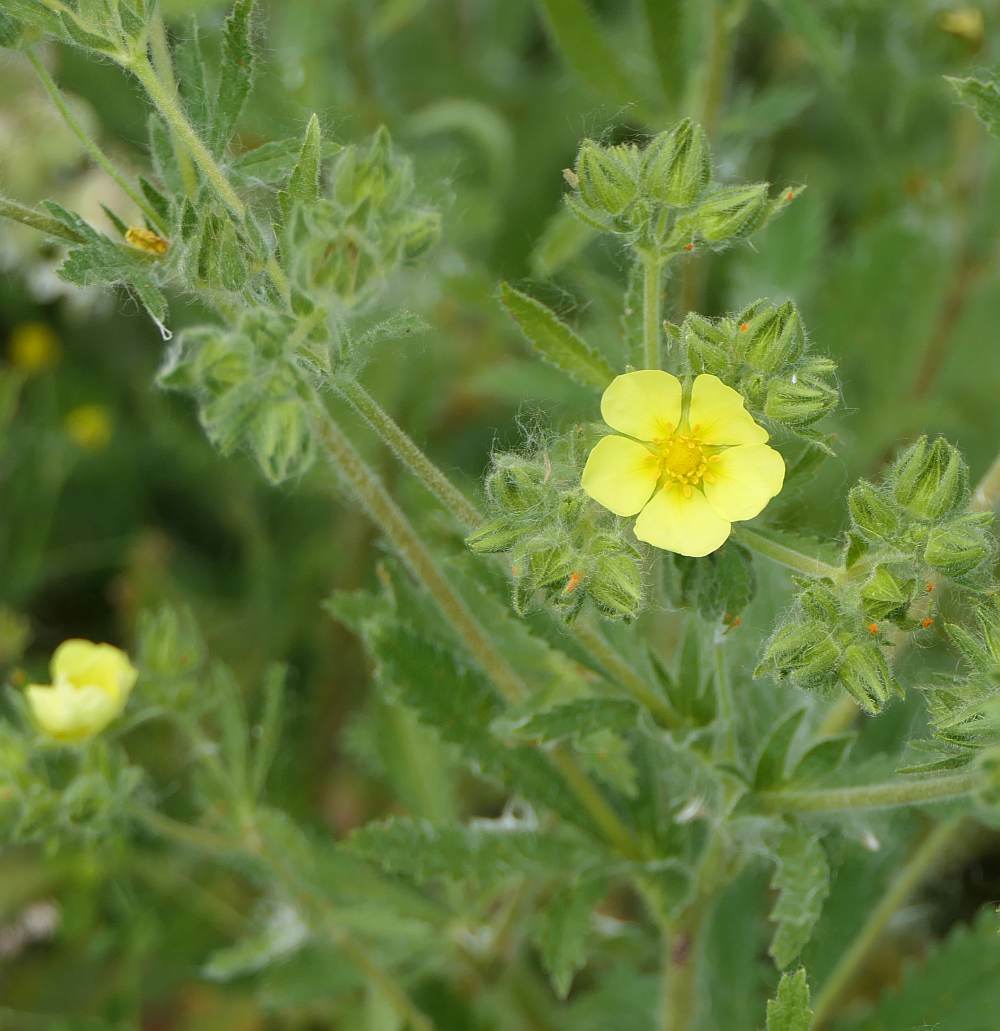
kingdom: Plantae
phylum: Tracheophyta
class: Magnoliopsida
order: Rosales
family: Rosaceae
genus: Potentilla
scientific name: Potentilla recta
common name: Sulphur cinquefoil
